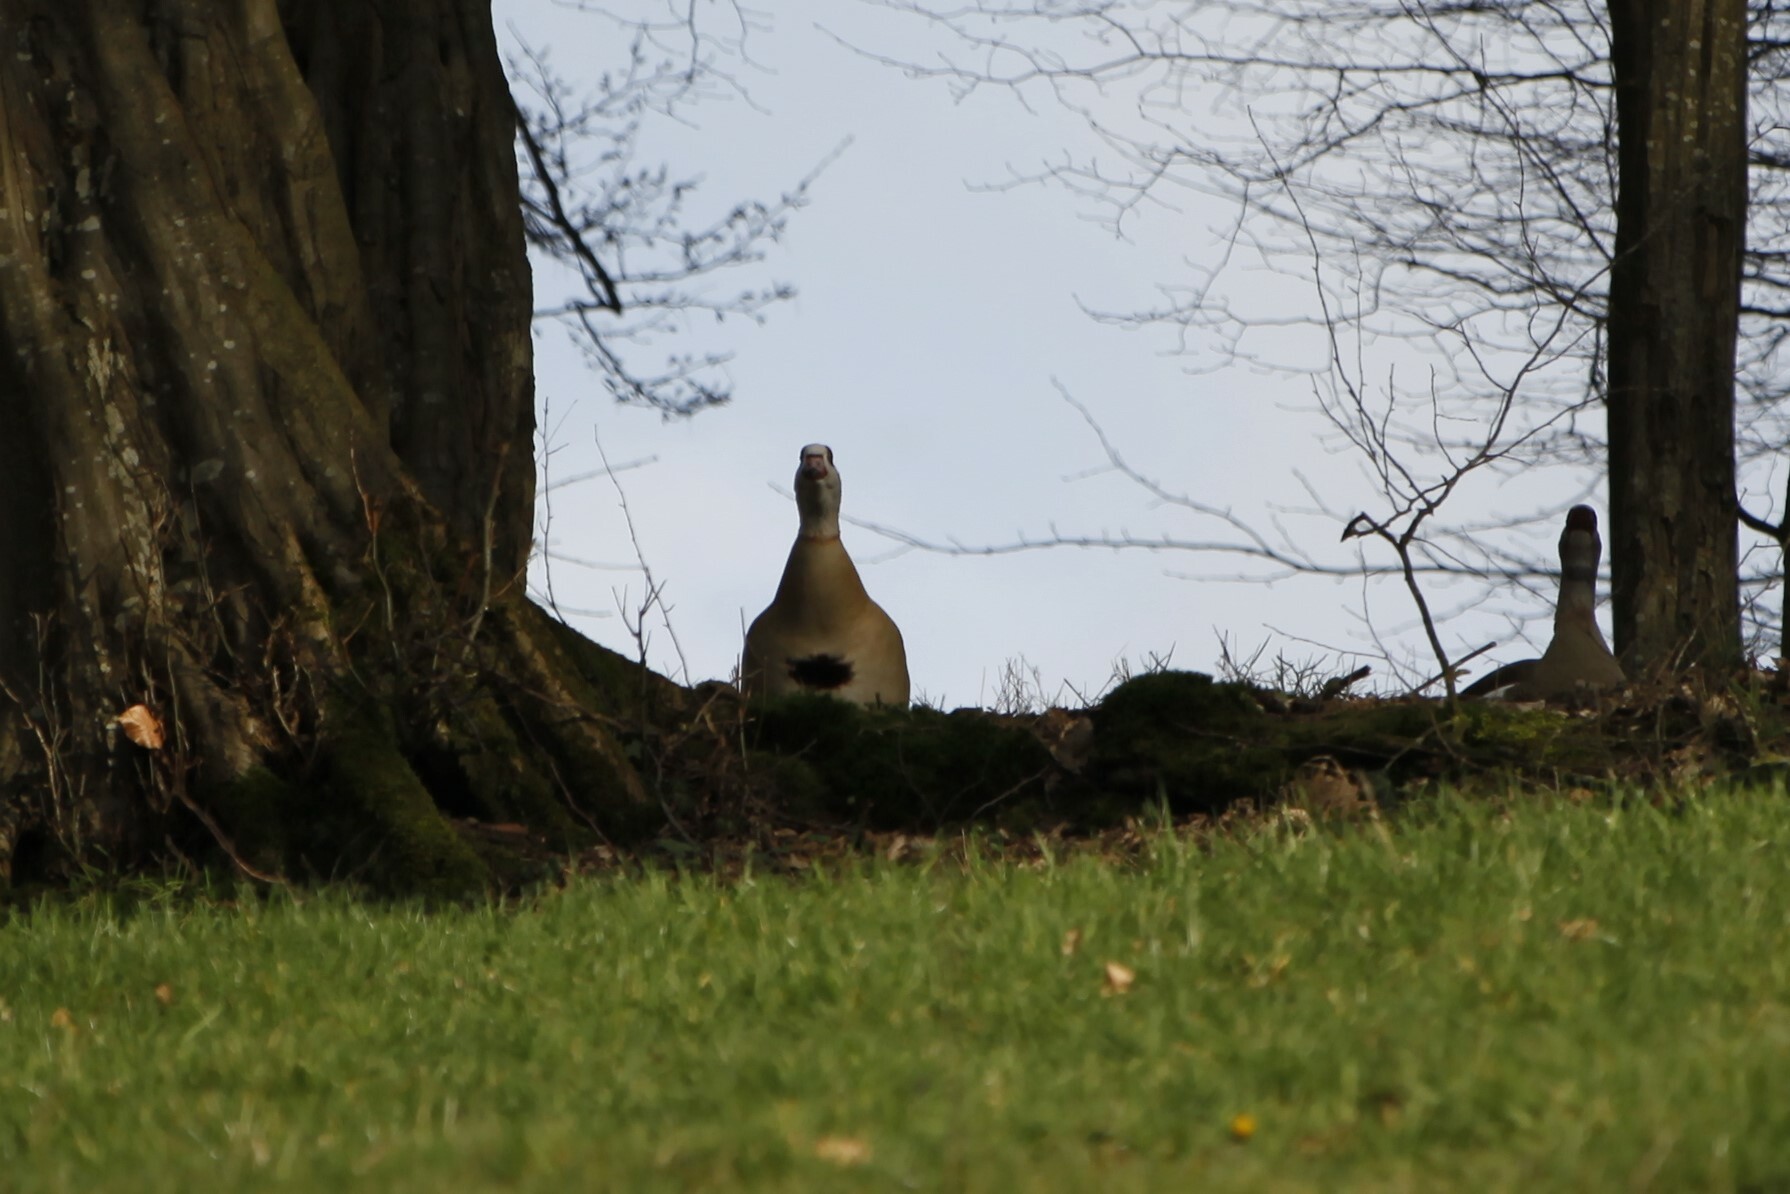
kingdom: Animalia
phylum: Chordata
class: Aves
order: Anseriformes
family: Anatidae
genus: Alopochen
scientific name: Alopochen aegyptiaca
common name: Egyptian goose
